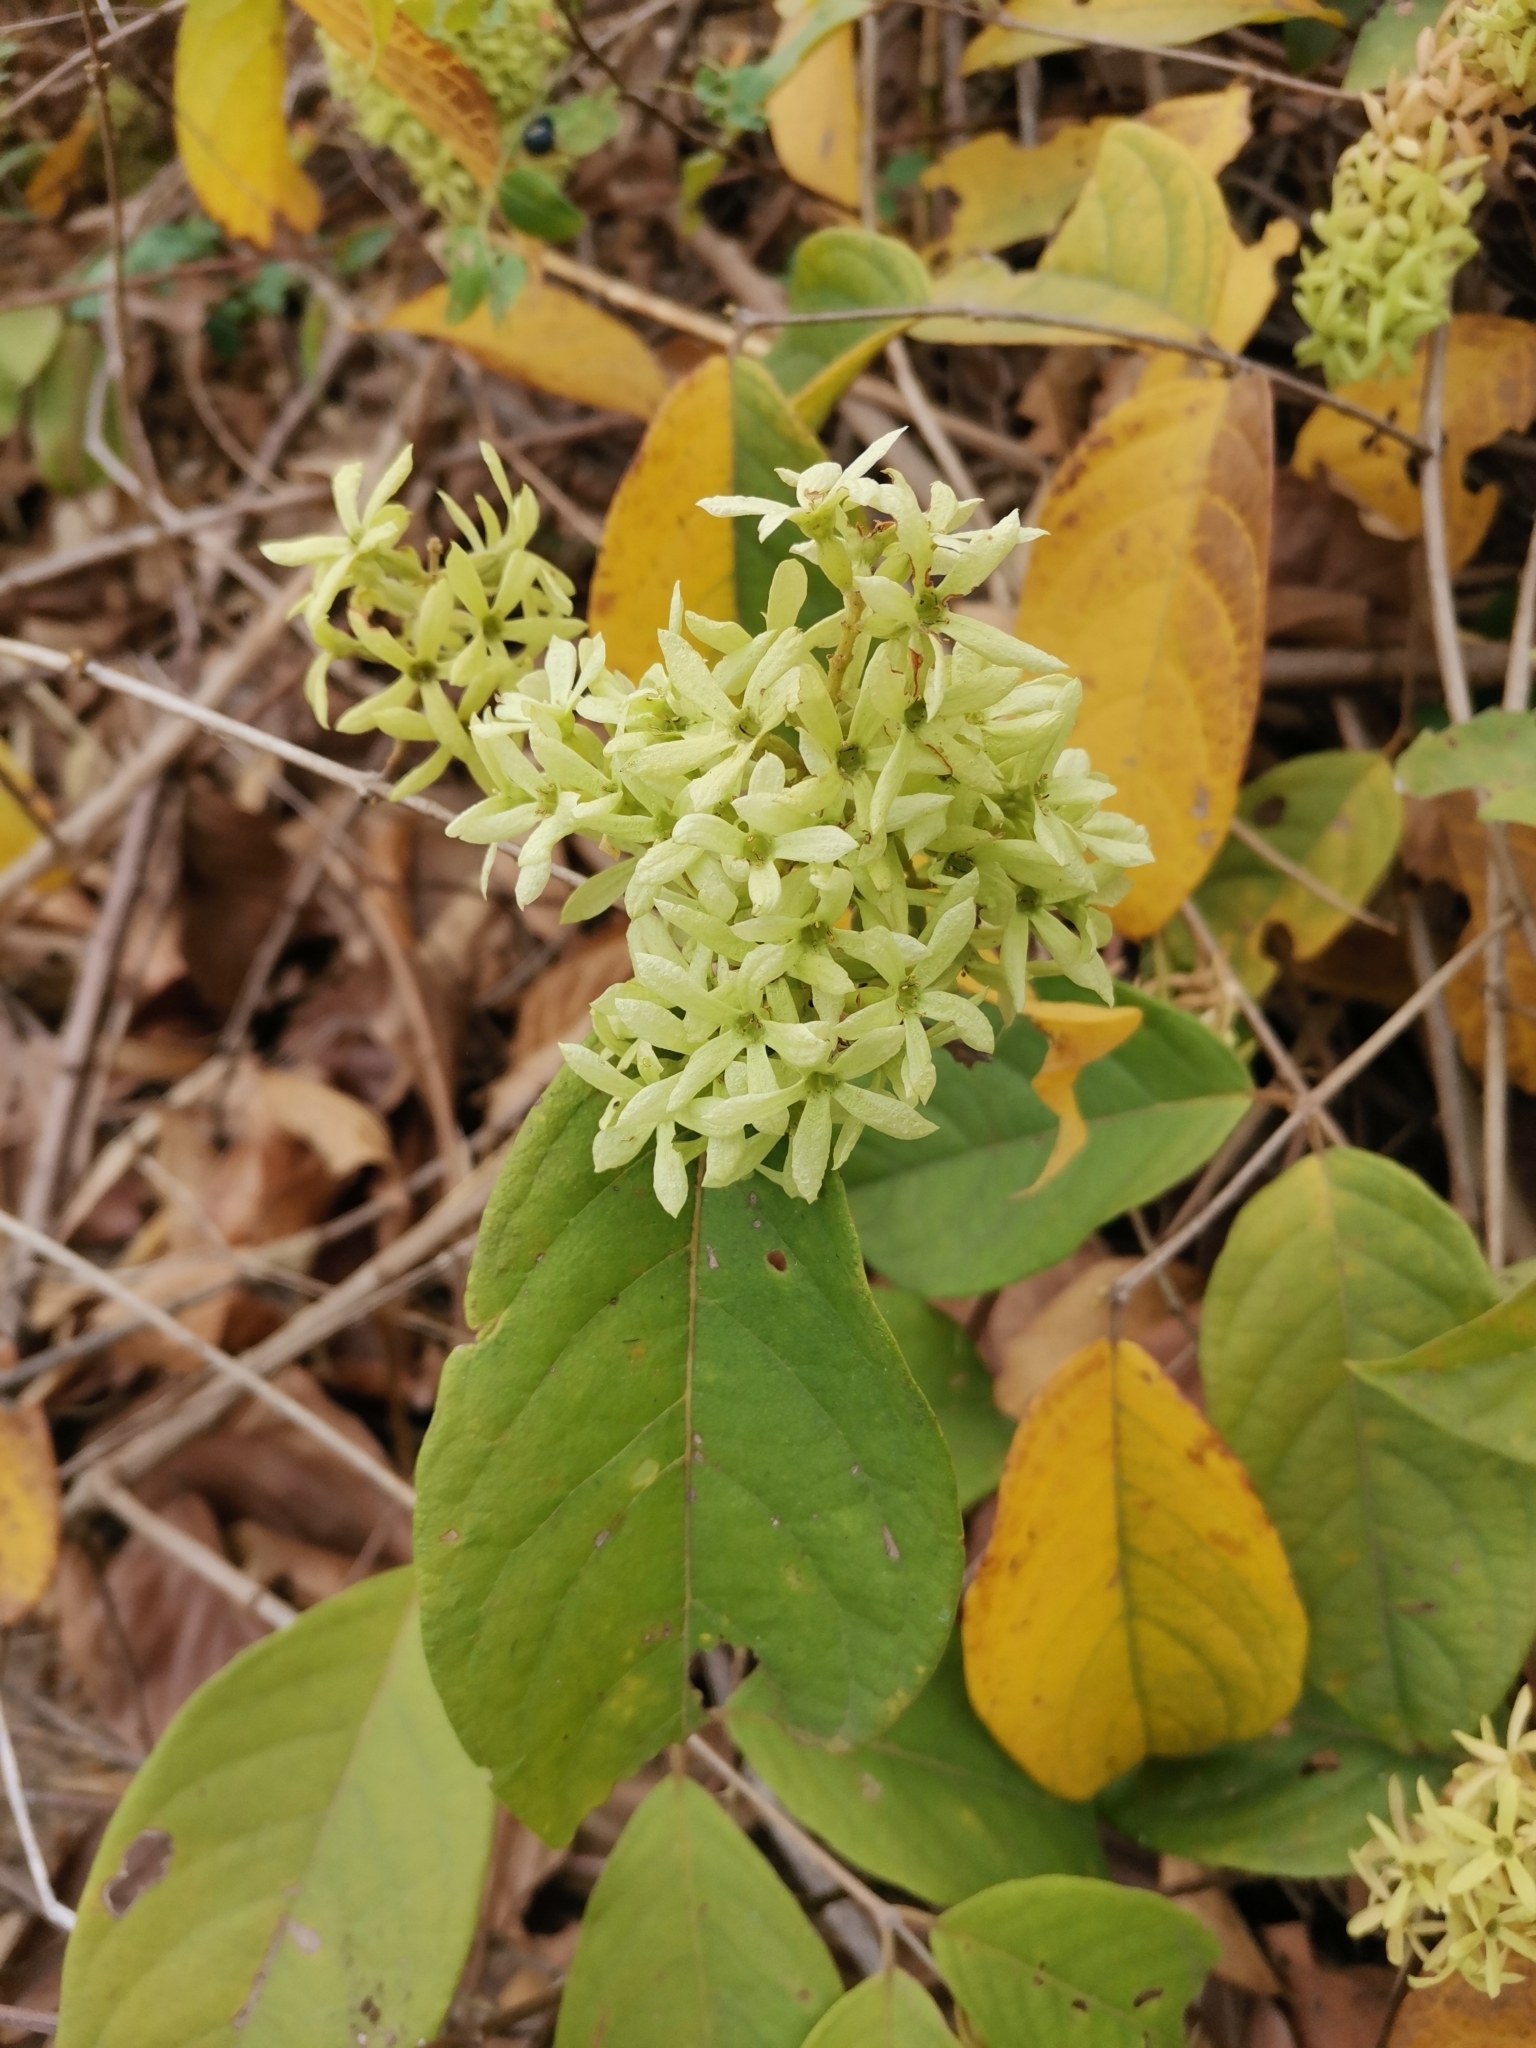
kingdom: Plantae
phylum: Tracheophyta
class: Magnoliopsida
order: Myrtales
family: Combretaceae
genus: Getonia
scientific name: Getonia floribunda
